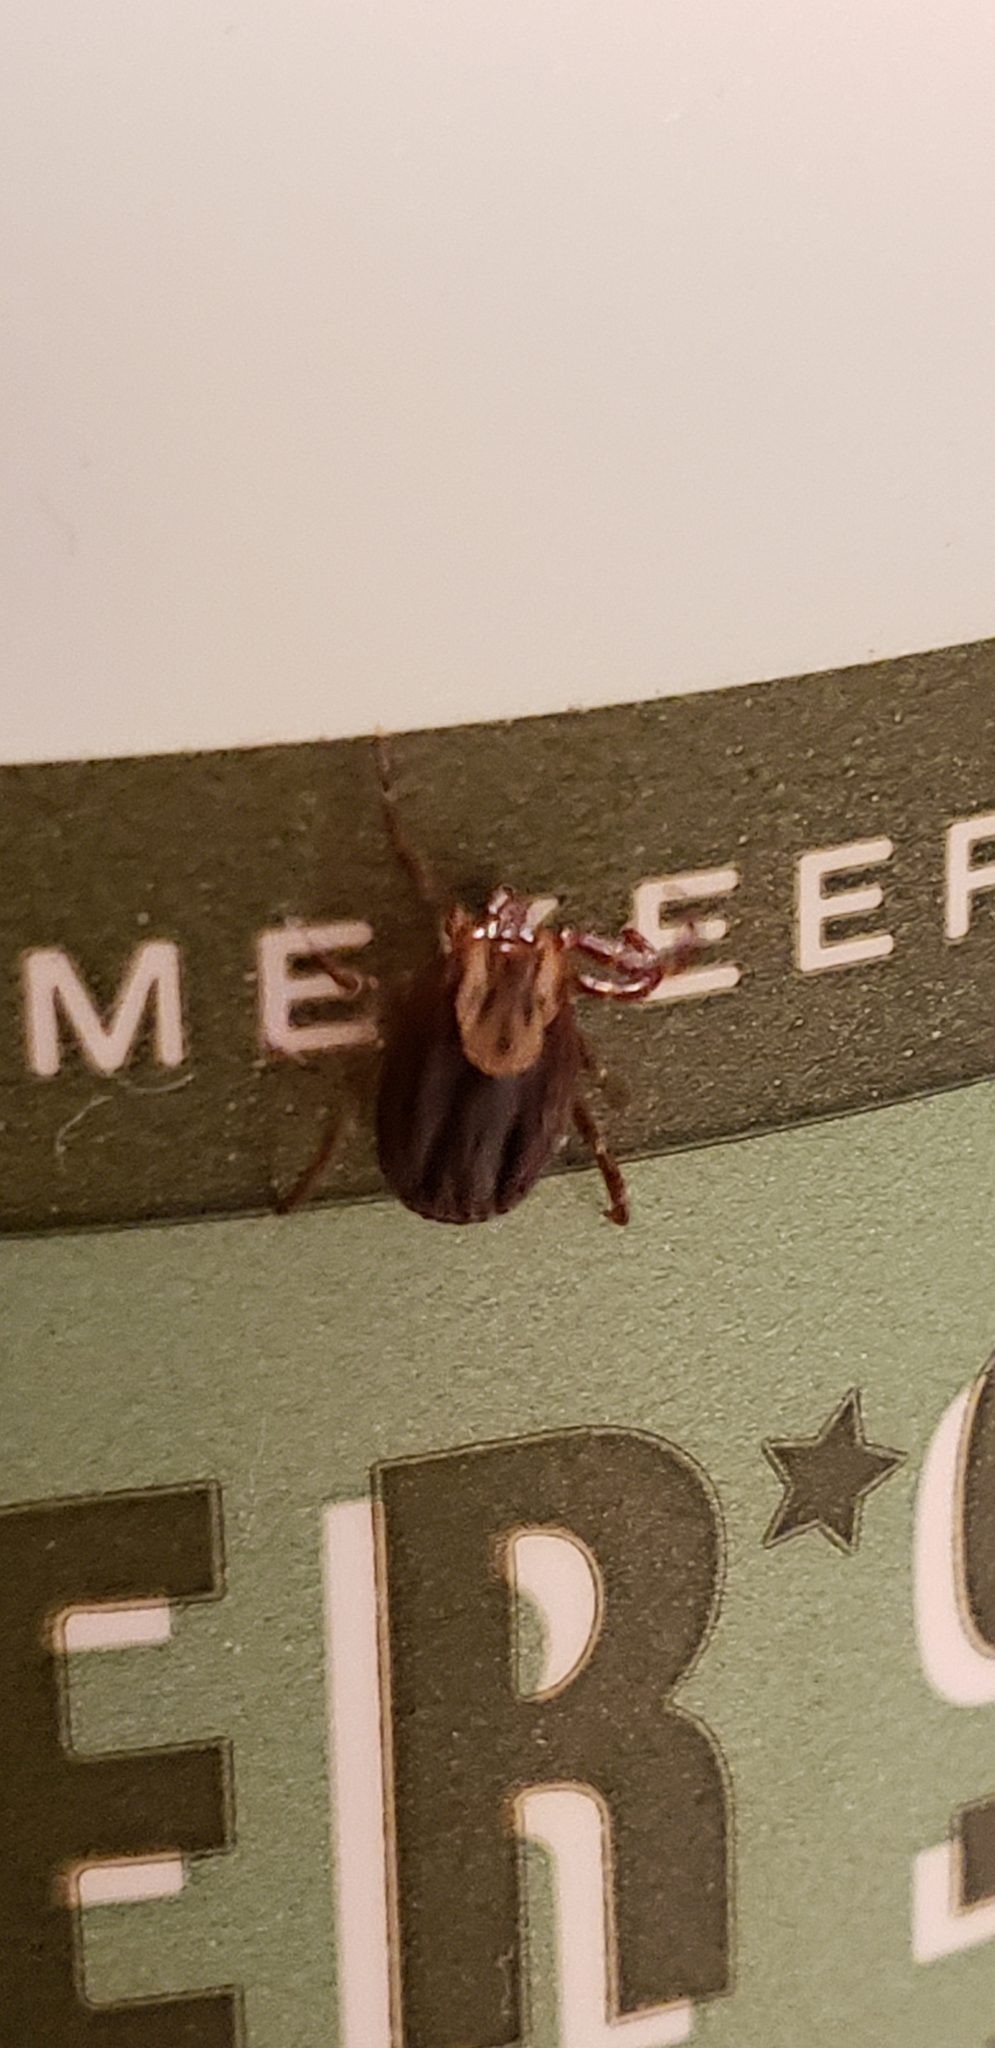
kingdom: Animalia
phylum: Arthropoda
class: Arachnida
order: Ixodida
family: Ixodidae
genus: Dermacentor
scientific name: Dermacentor variabilis
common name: American dog tick
